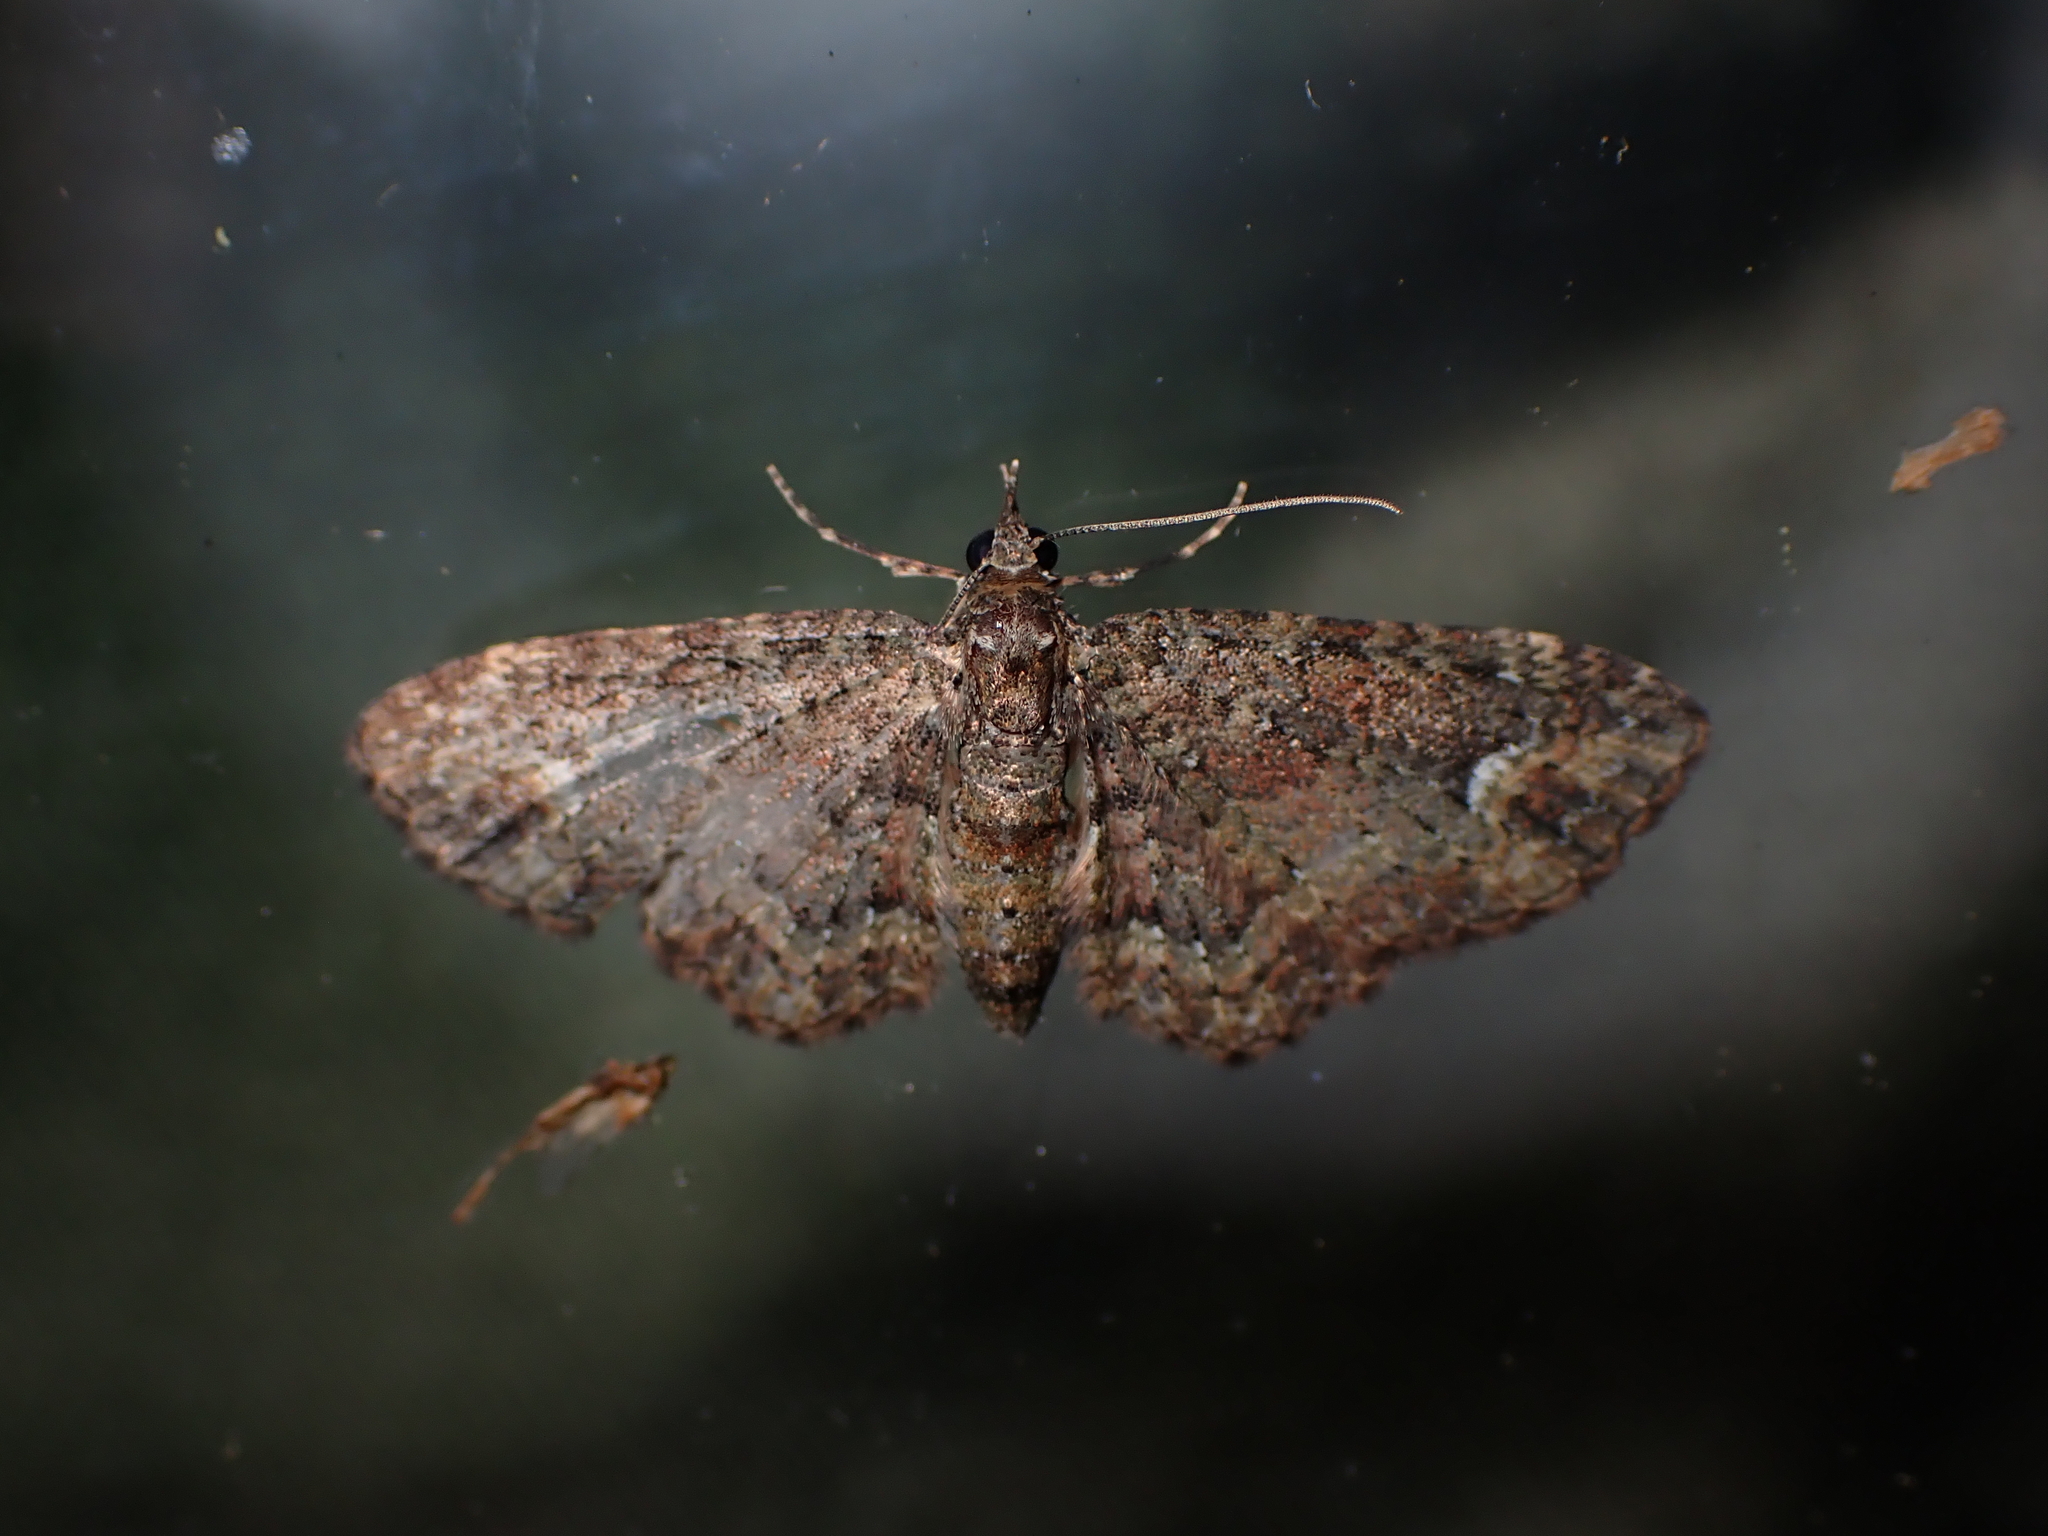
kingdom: Animalia
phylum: Arthropoda
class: Insecta
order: Lepidoptera
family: Geometridae
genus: Pasiphilodes
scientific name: Pasiphilodes testulata
